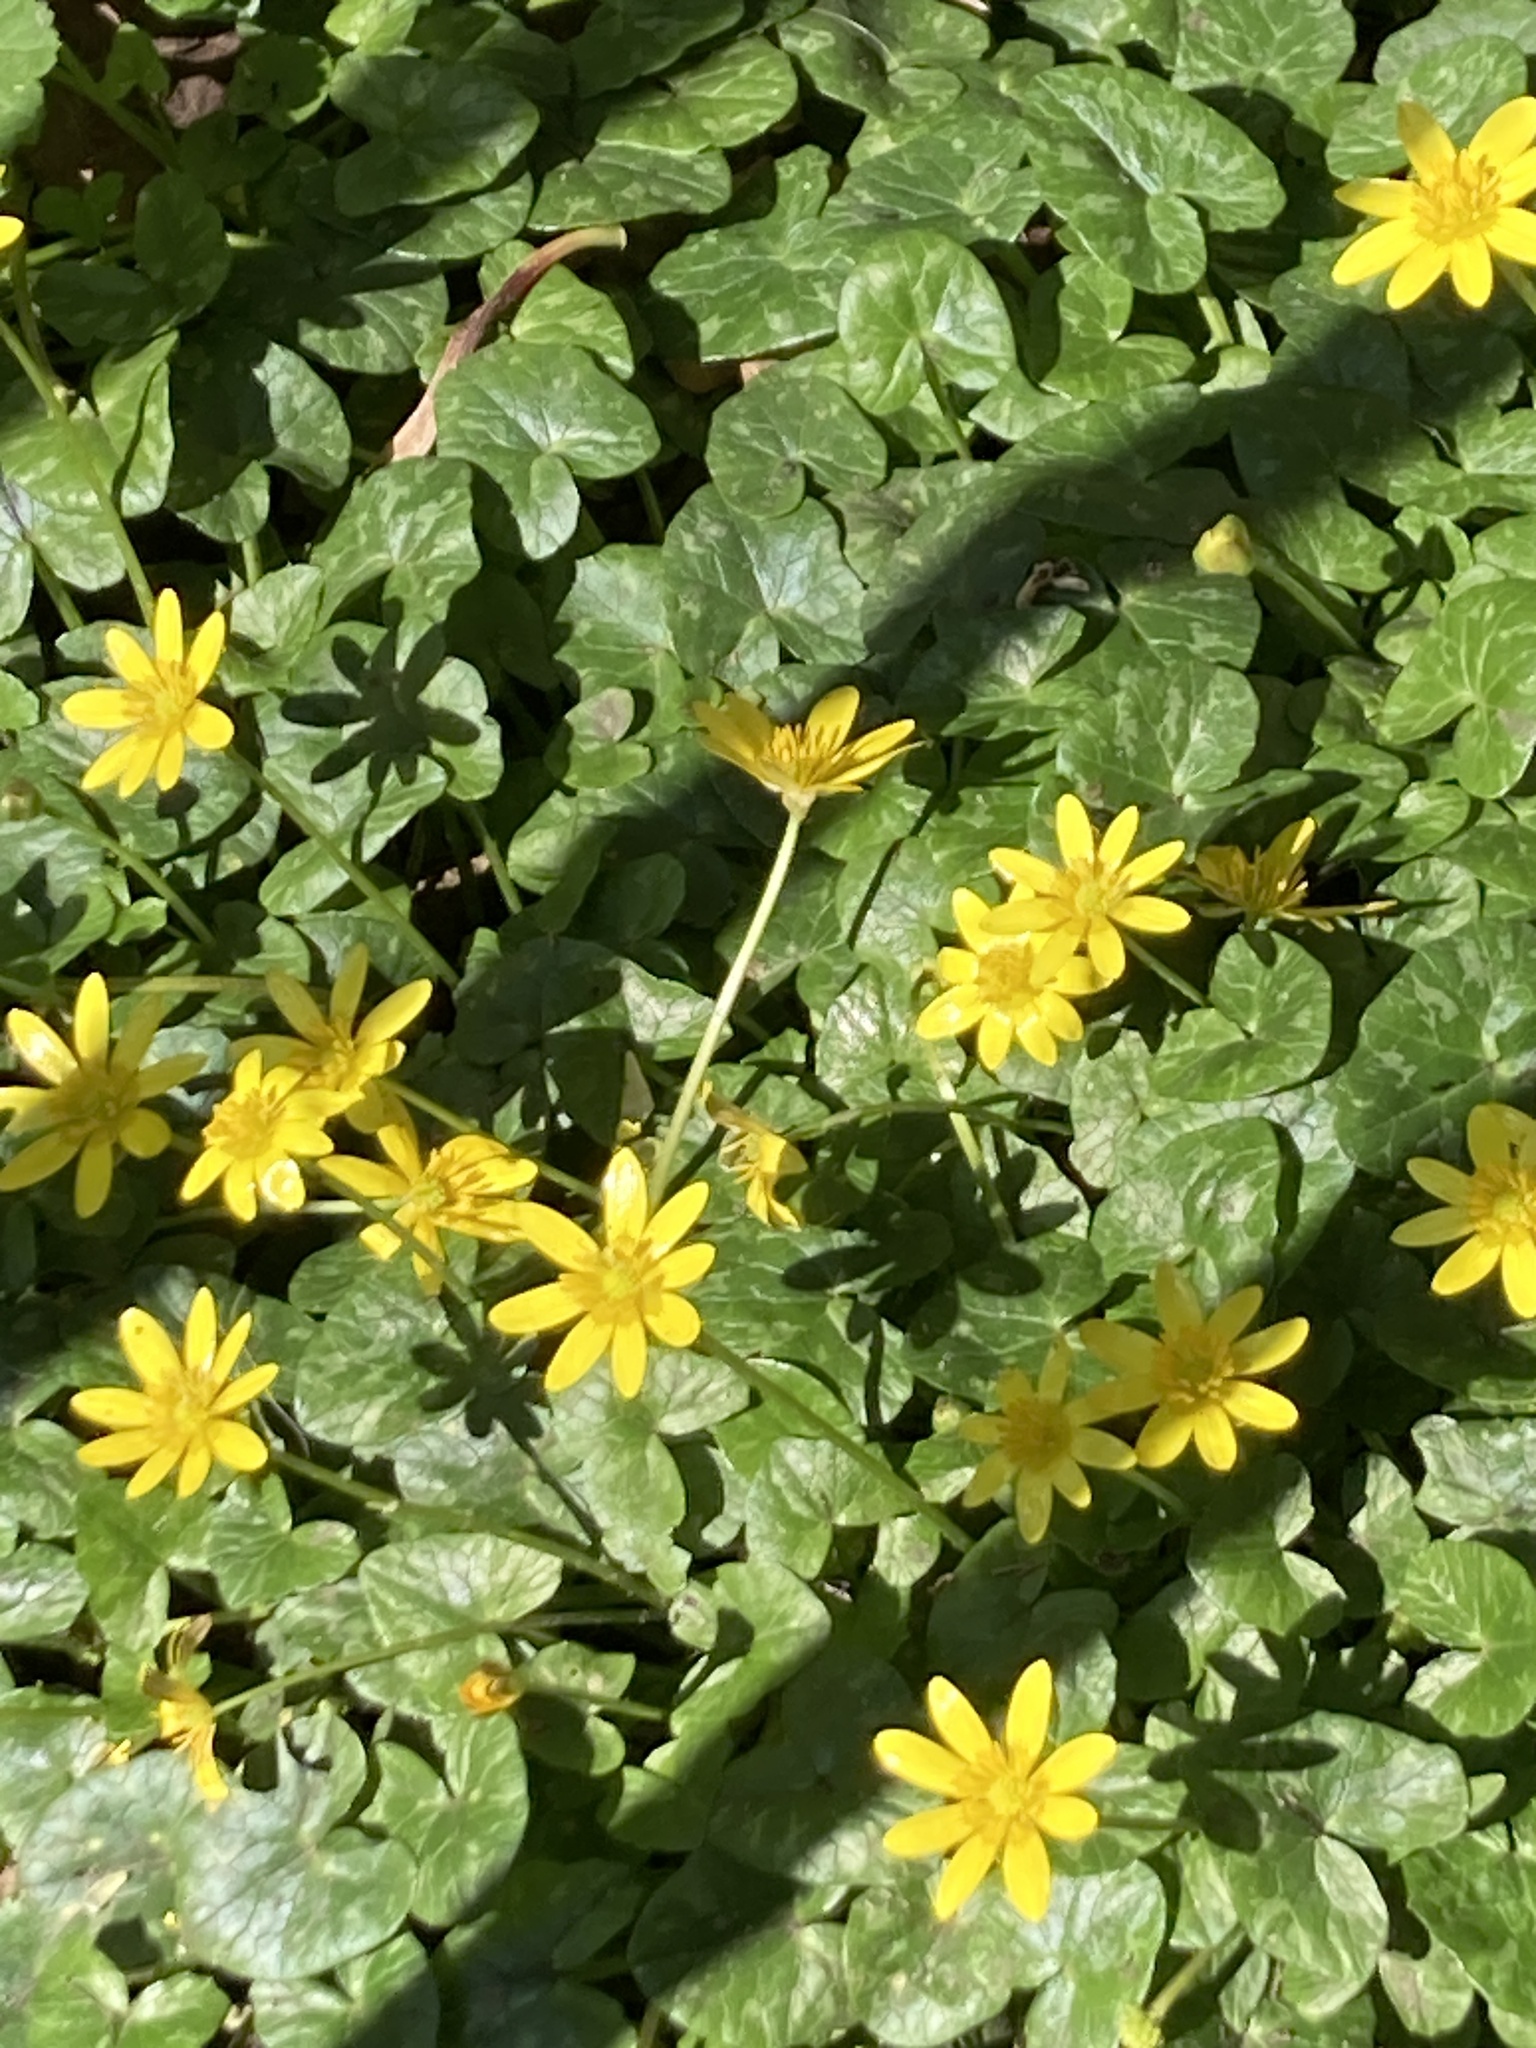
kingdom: Plantae
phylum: Tracheophyta
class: Magnoliopsida
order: Ranunculales
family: Ranunculaceae
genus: Ficaria
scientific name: Ficaria verna
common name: Lesser celandine
